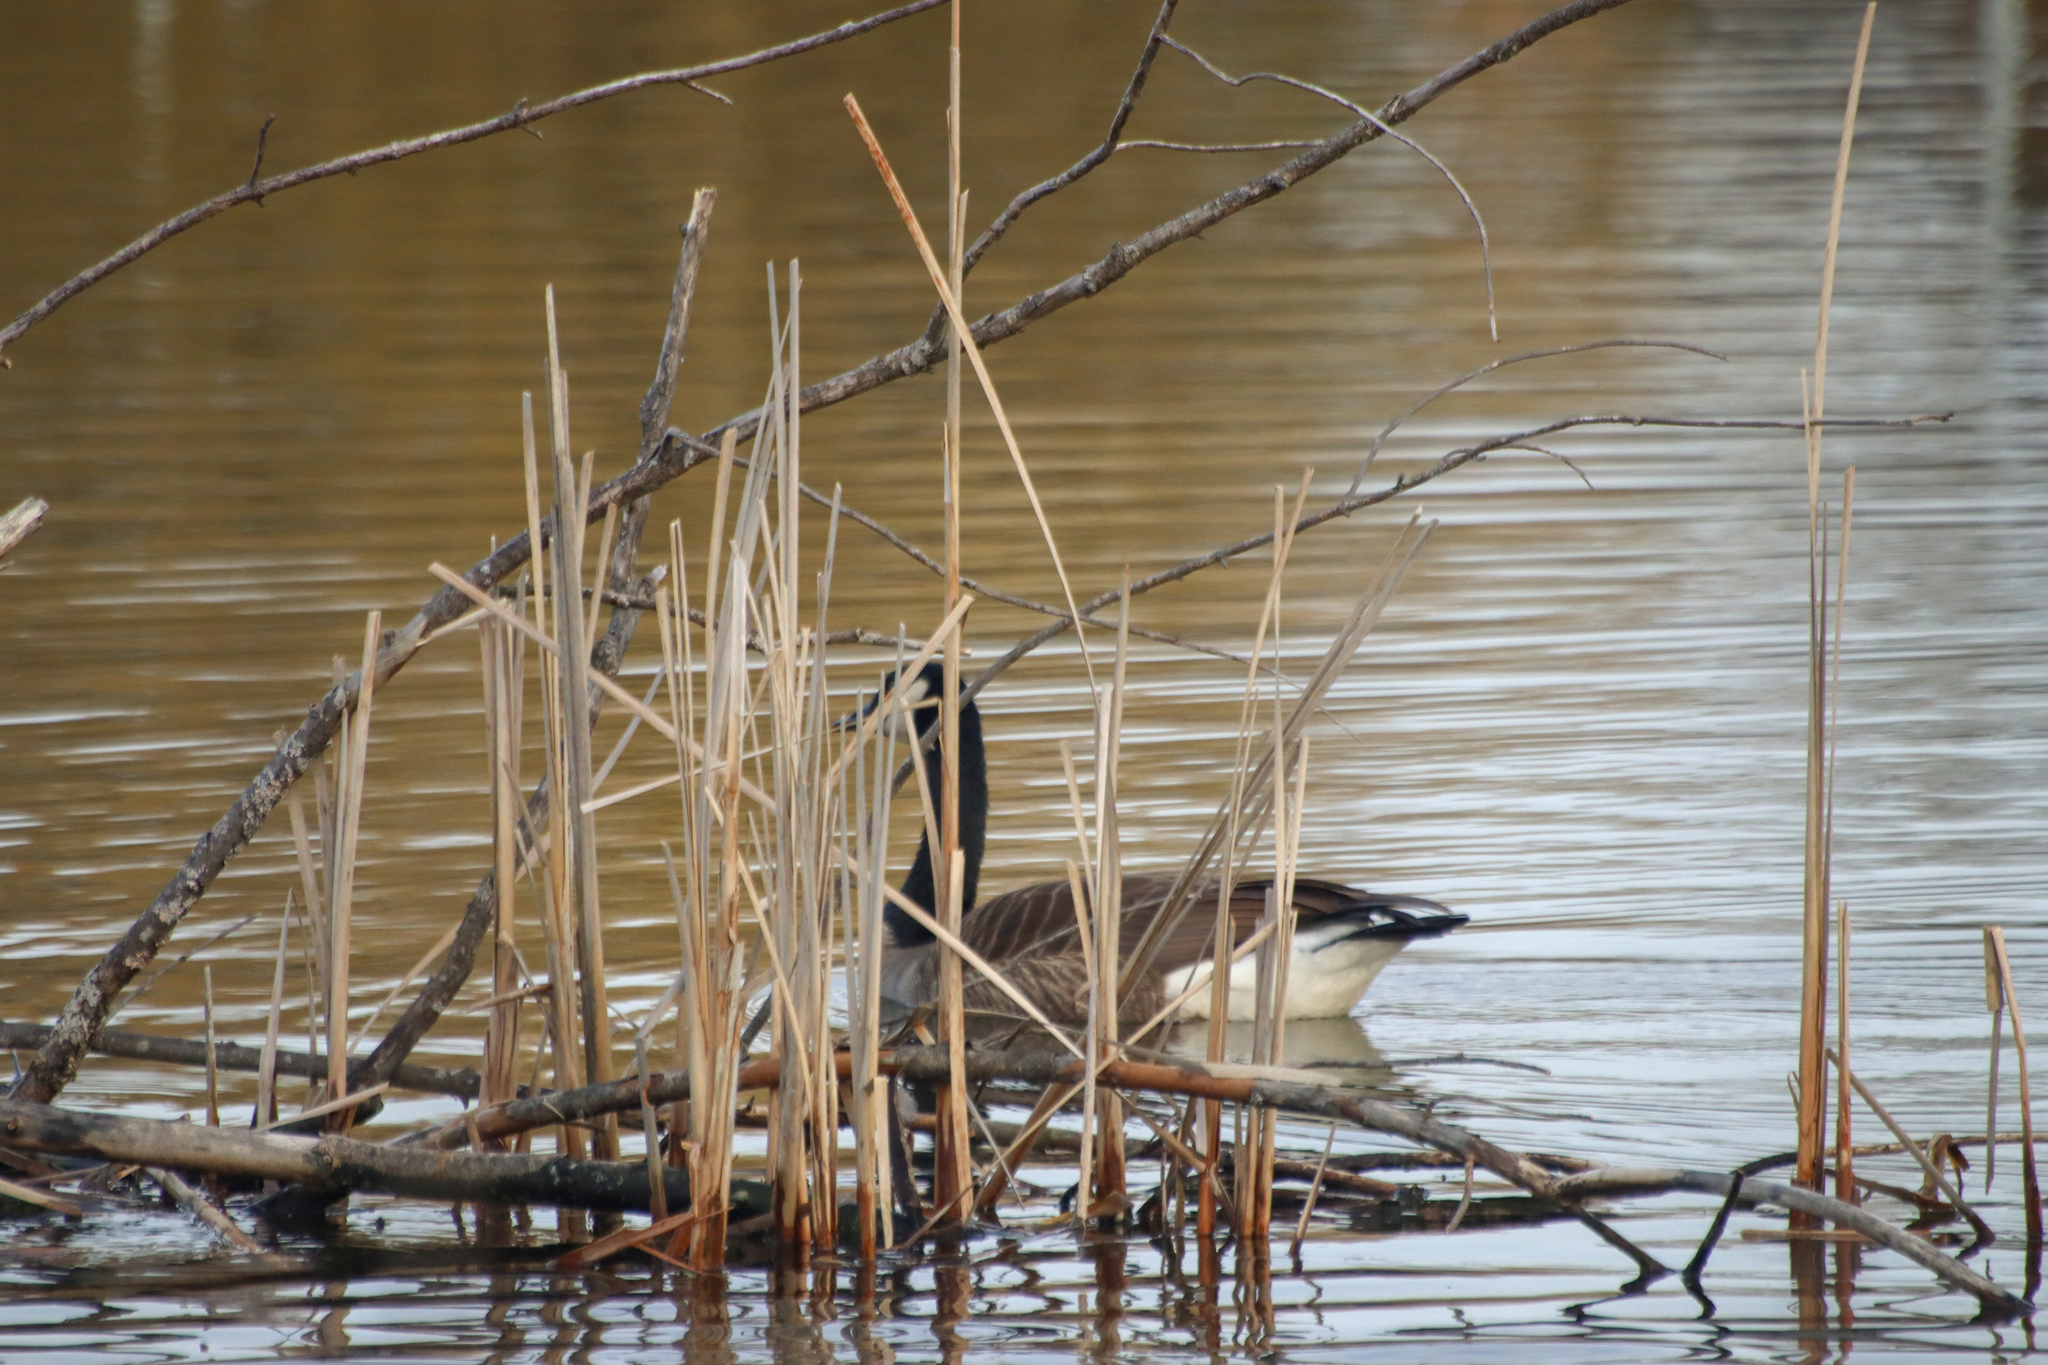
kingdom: Animalia
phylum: Chordata
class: Aves
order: Anseriformes
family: Anatidae
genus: Branta
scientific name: Branta canadensis
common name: Canada goose
